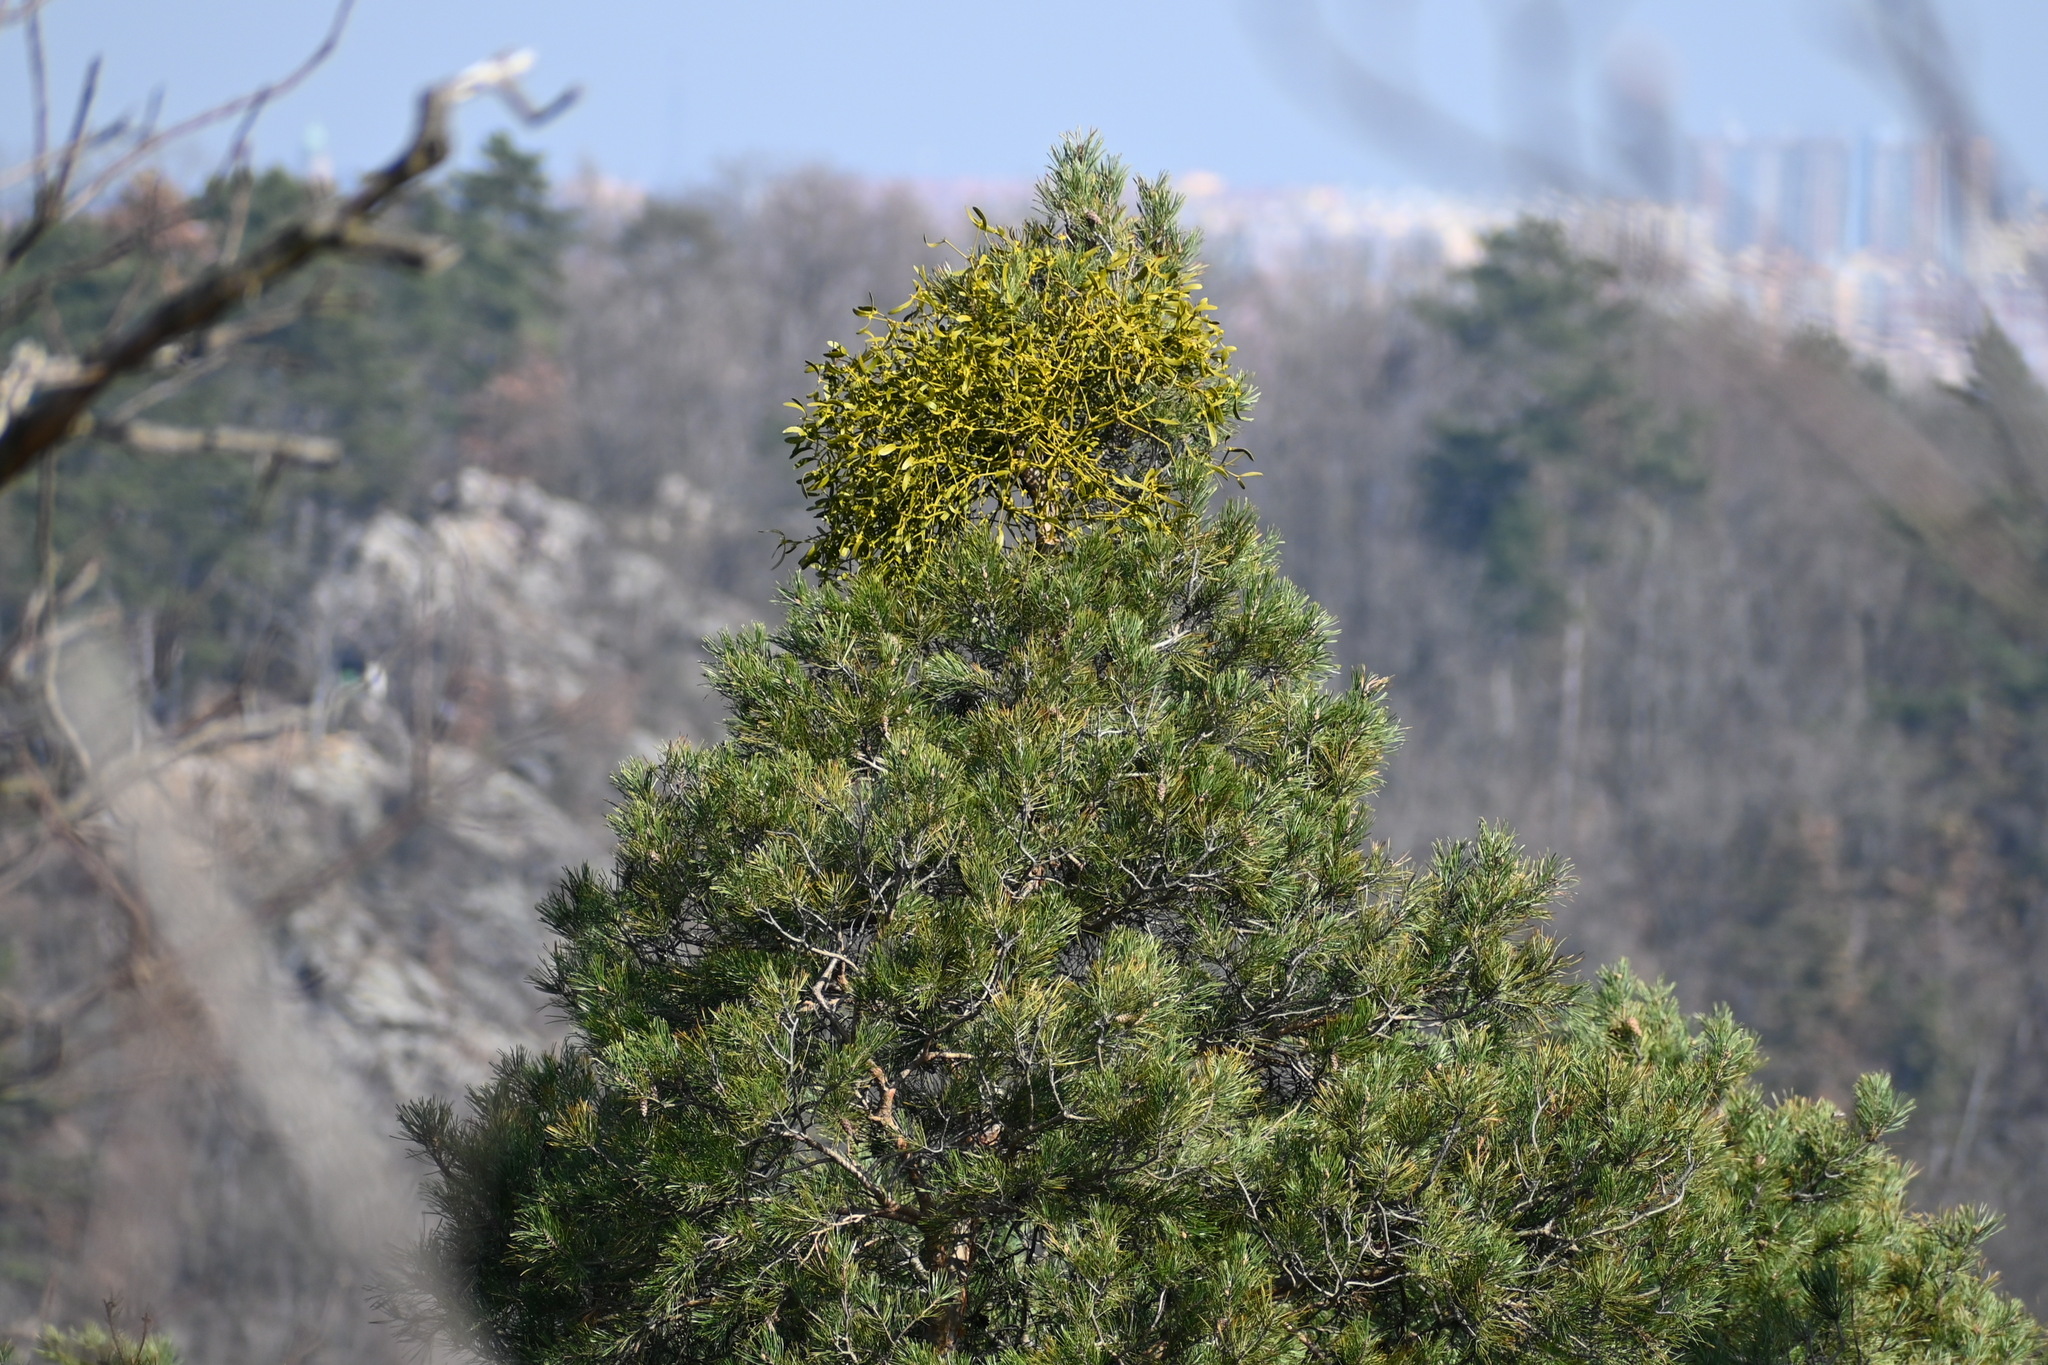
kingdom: Plantae
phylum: Tracheophyta
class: Magnoliopsida
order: Santalales
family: Viscaceae
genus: Viscum
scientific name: Viscum album
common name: Mistletoe
